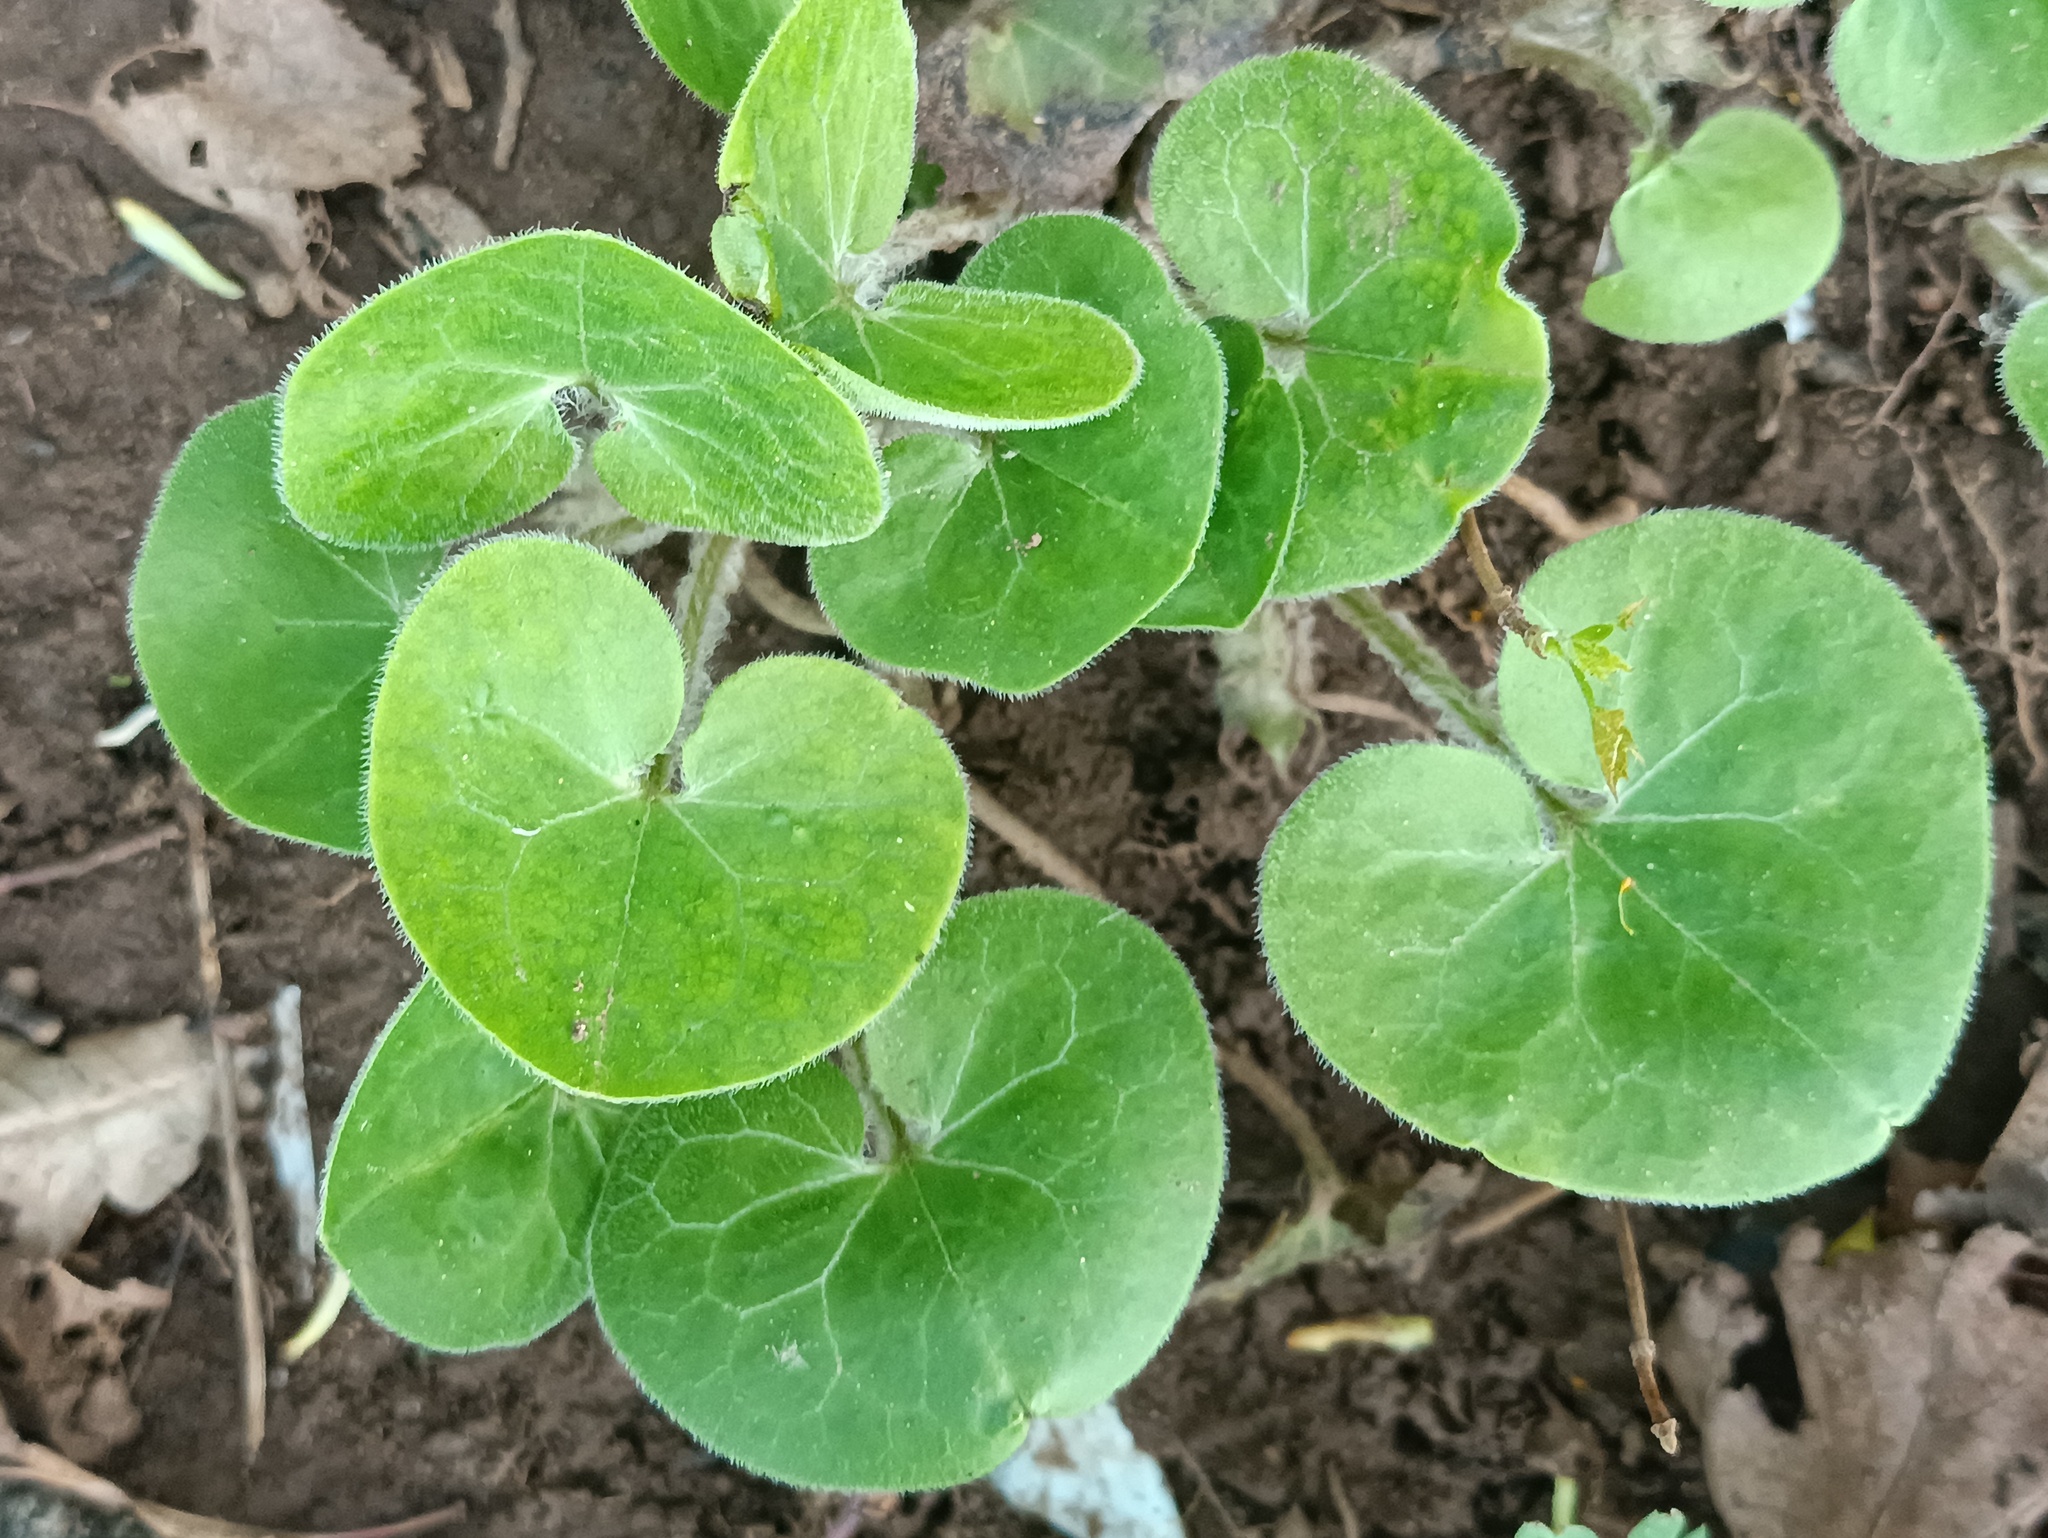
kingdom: Plantae
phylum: Tracheophyta
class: Magnoliopsida
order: Piperales
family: Aristolochiaceae
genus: Asarum
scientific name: Asarum europaeum
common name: Asarabacca
